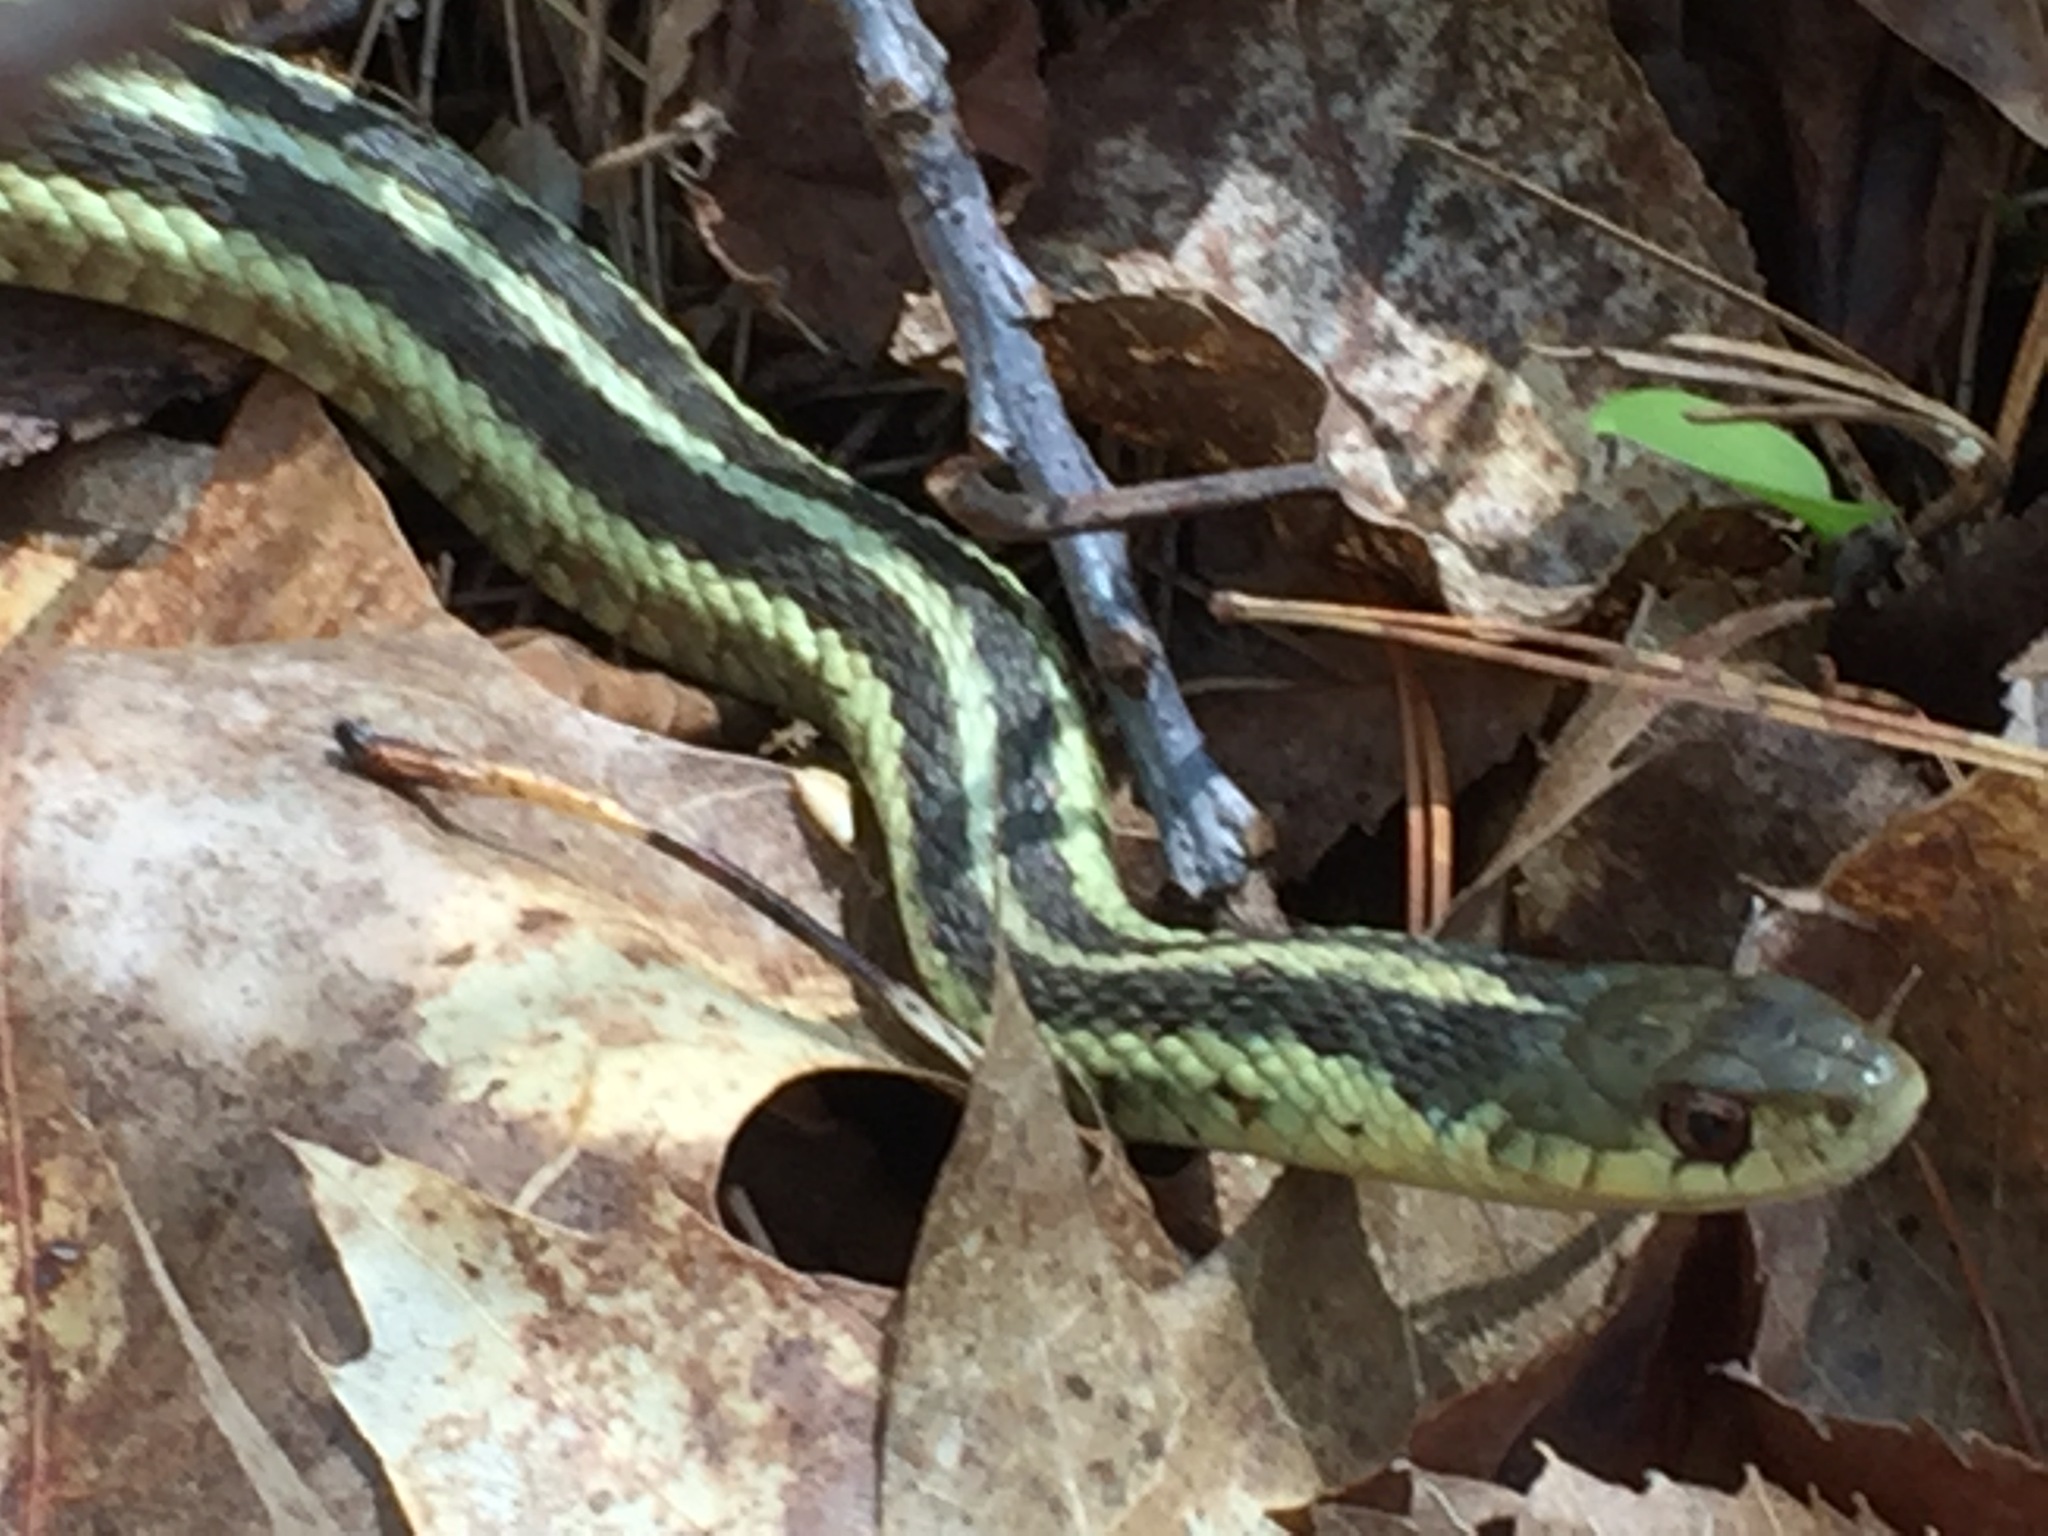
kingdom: Animalia
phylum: Chordata
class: Squamata
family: Colubridae
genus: Thamnophis
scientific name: Thamnophis sirtalis
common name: Common garter snake
